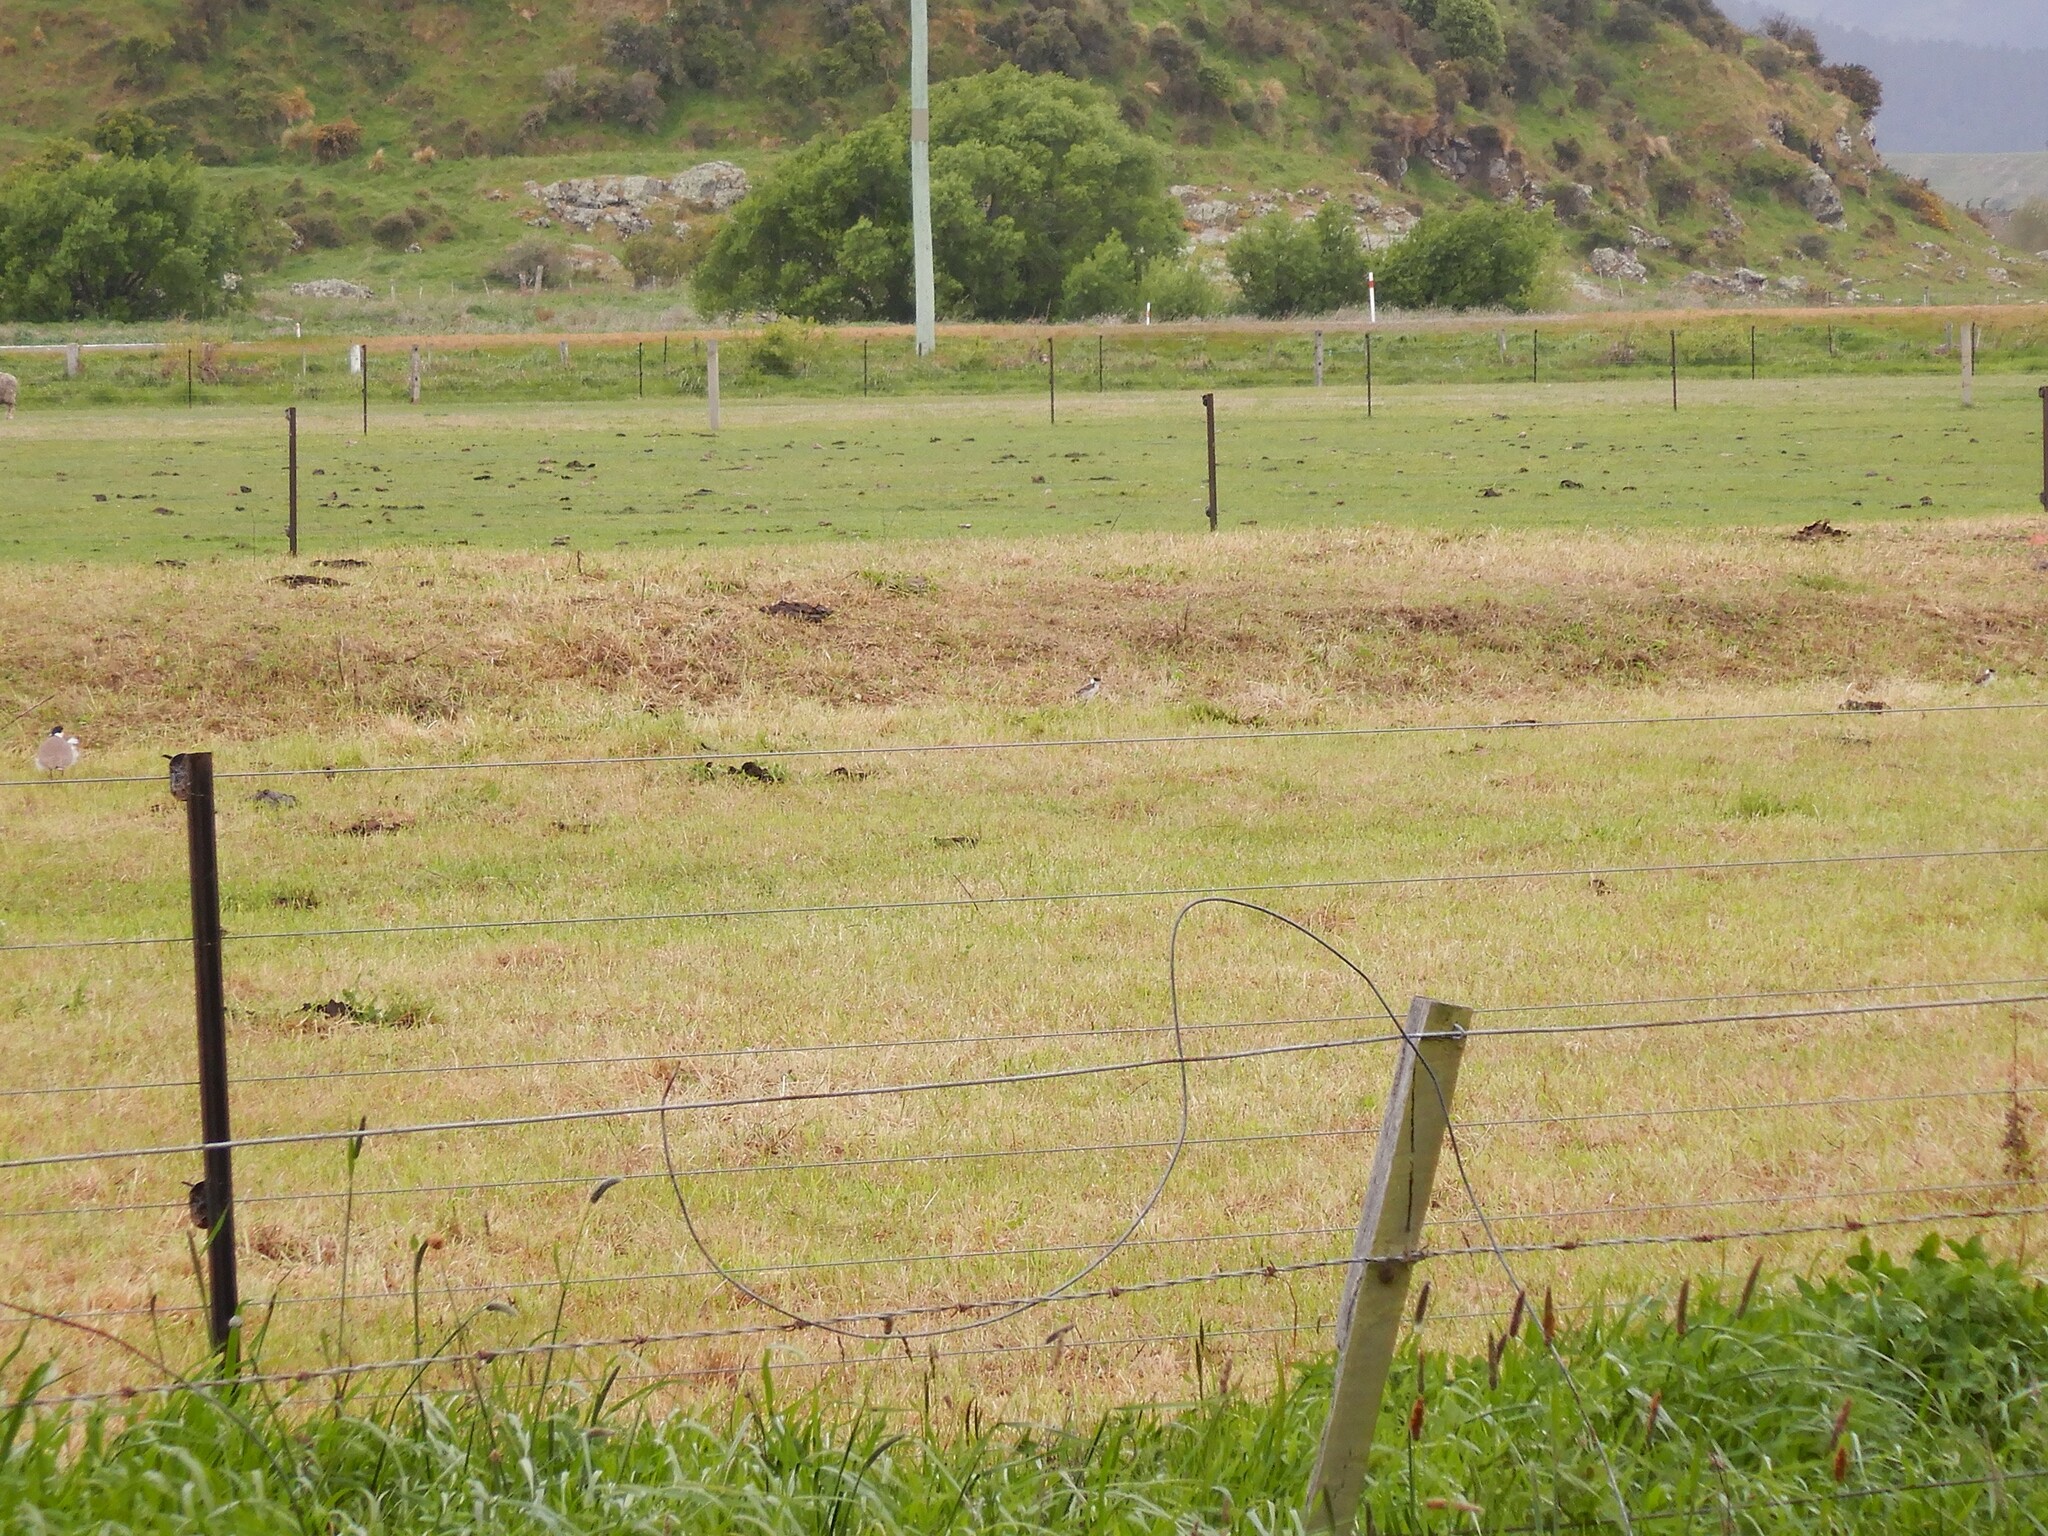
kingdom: Animalia
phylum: Chordata
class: Aves
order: Charadriiformes
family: Charadriidae
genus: Vanellus
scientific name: Vanellus miles
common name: Masked lapwing
